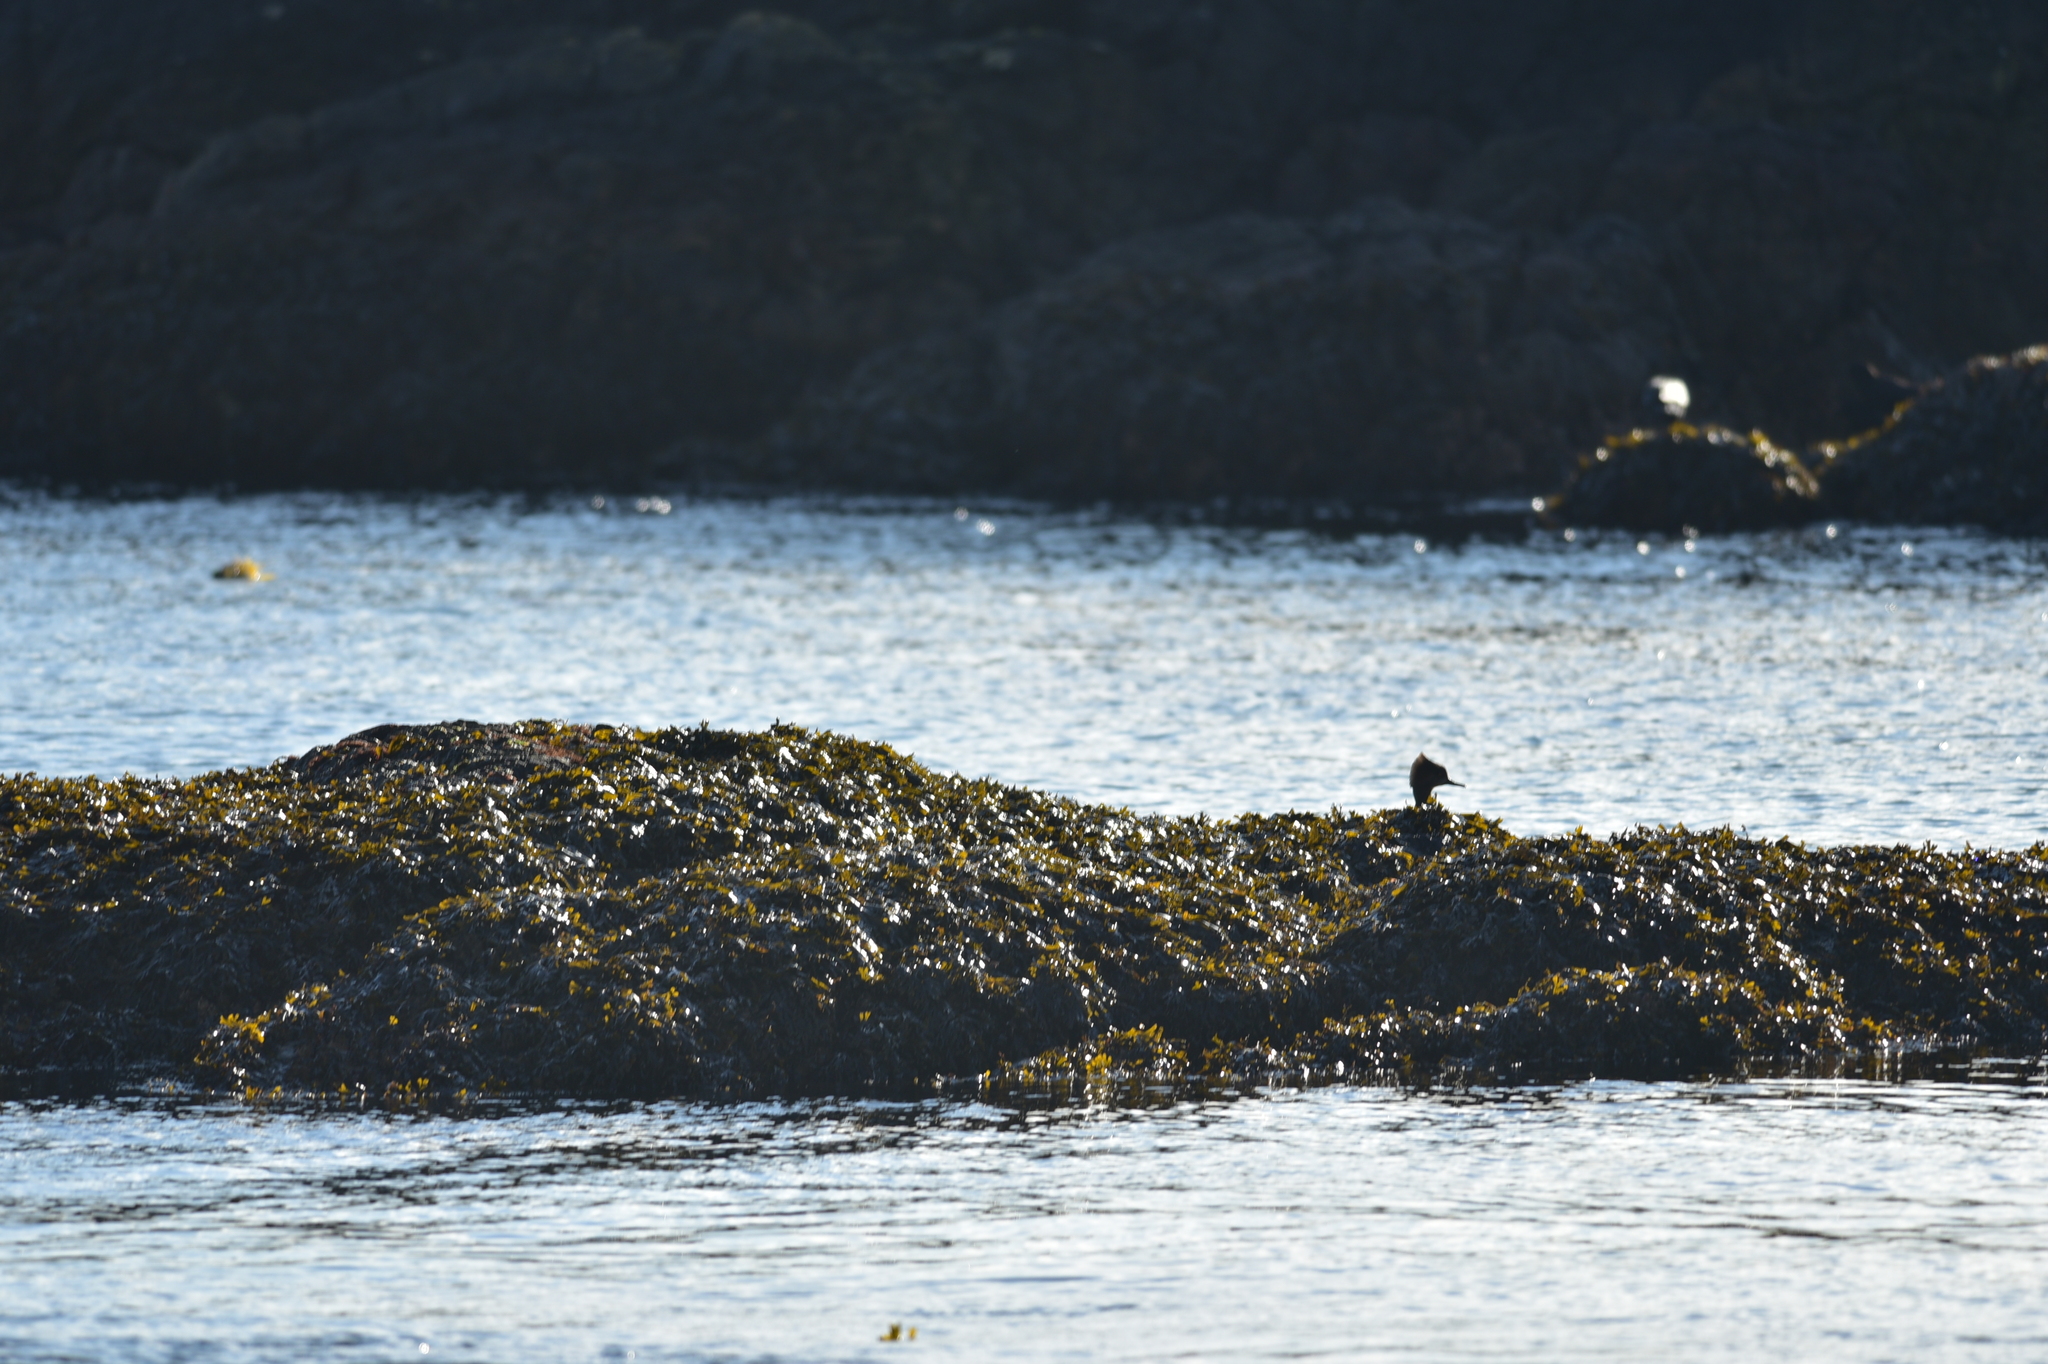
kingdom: Animalia
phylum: Chordata
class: Aves
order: Anseriformes
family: Anatidae
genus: Lophodytes
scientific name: Lophodytes cucullatus
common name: Hooded merganser
